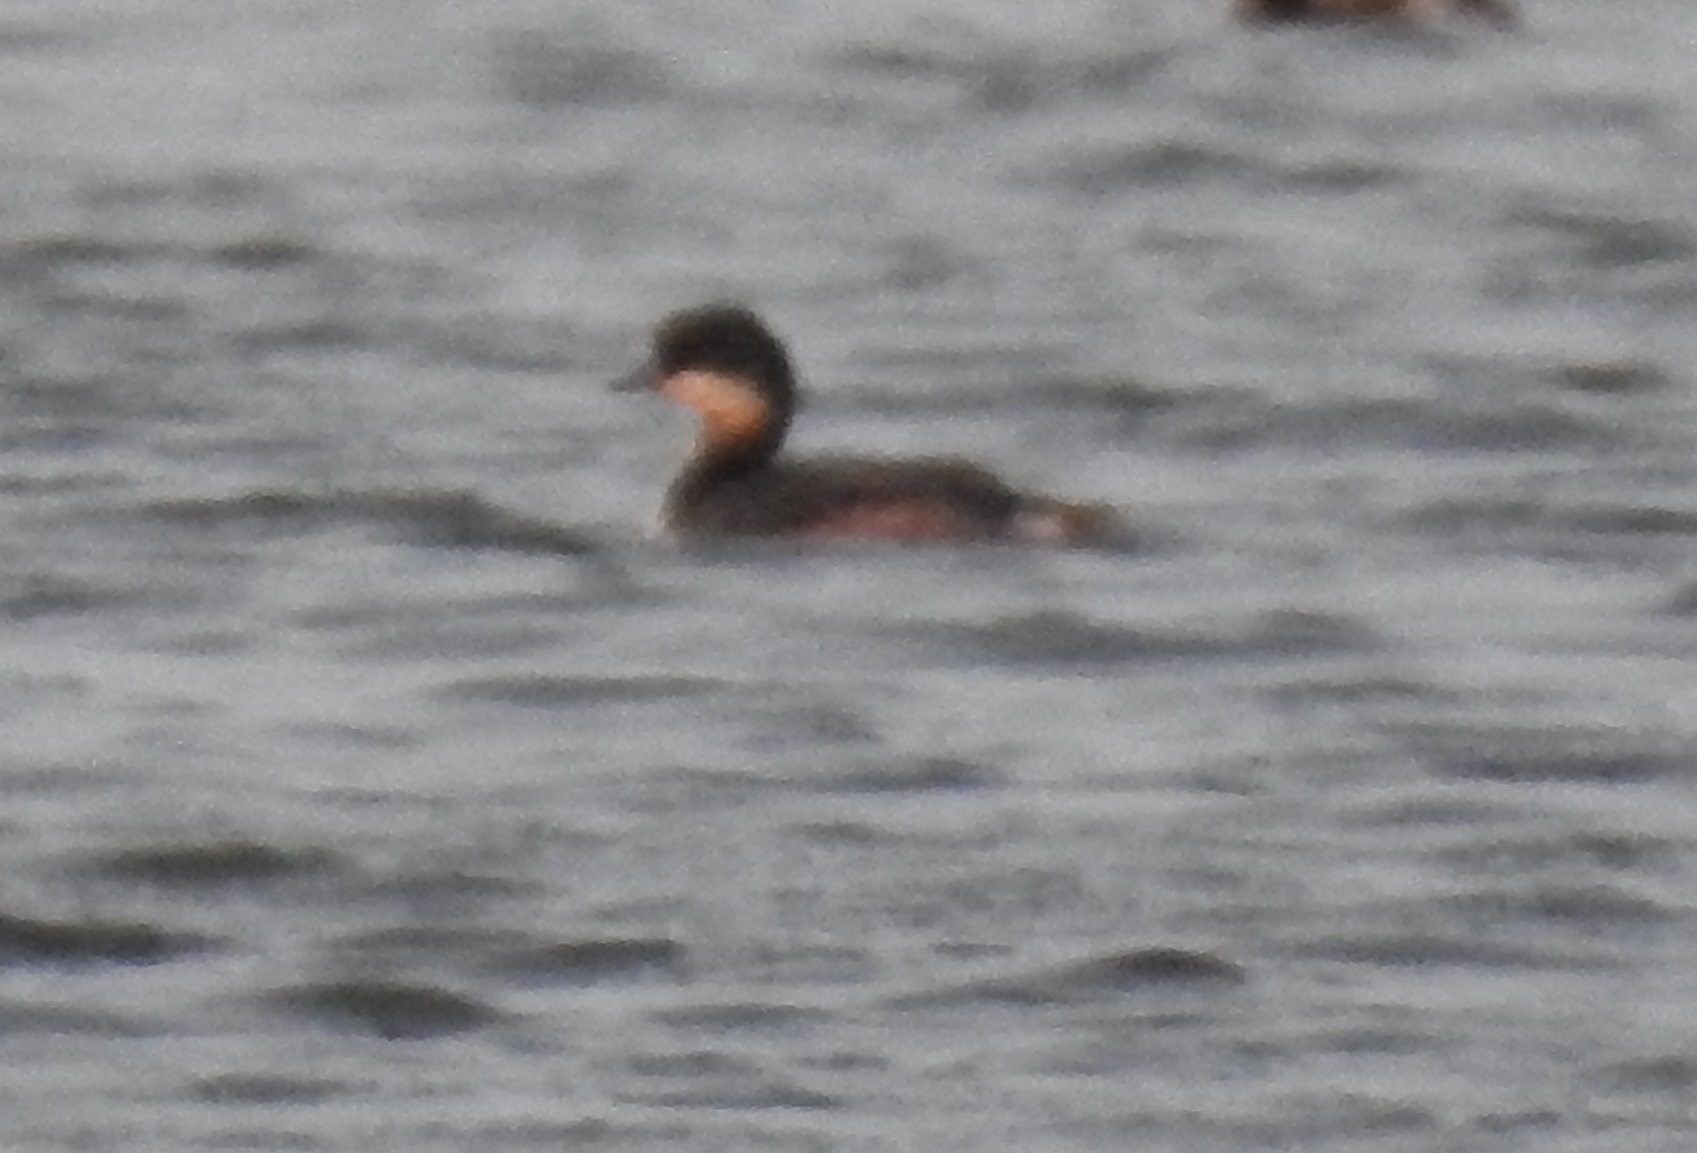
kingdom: Animalia
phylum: Chordata
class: Aves
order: Podicipediformes
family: Podicipedidae
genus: Podiceps
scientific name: Podiceps nigricollis
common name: Black-necked grebe
